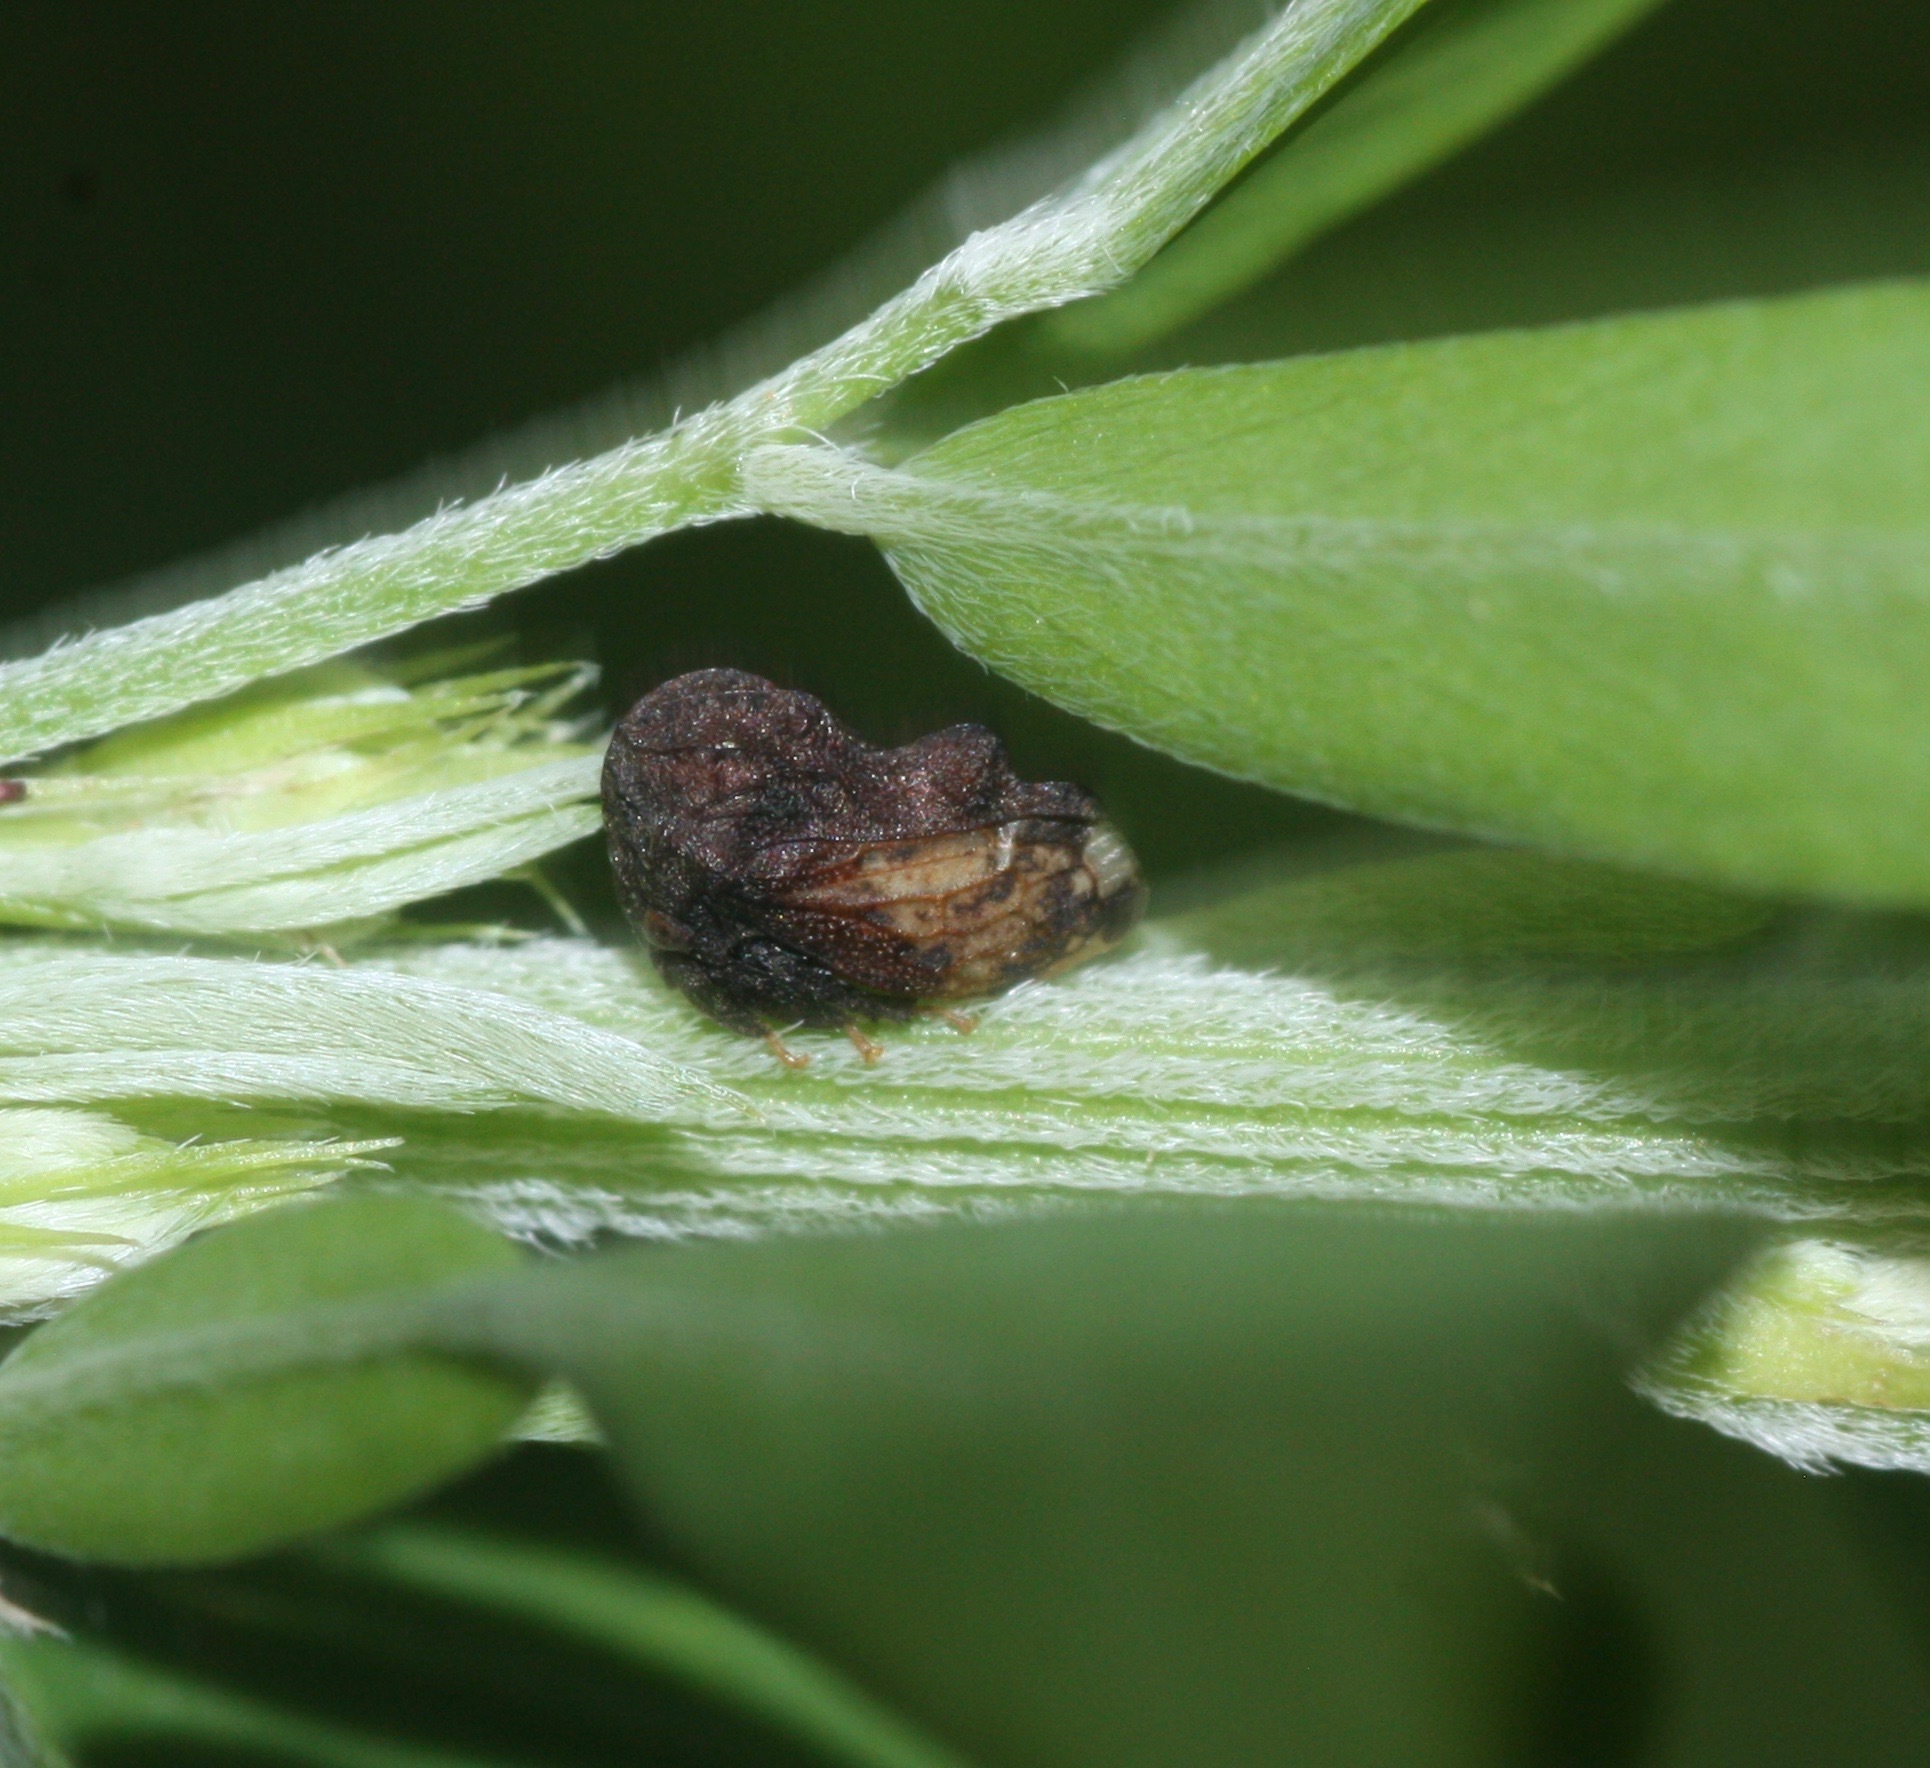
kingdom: Animalia
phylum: Arthropoda
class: Insecta
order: Hemiptera
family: Membracidae
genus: Tylopelta
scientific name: Tylopelta gibbera
